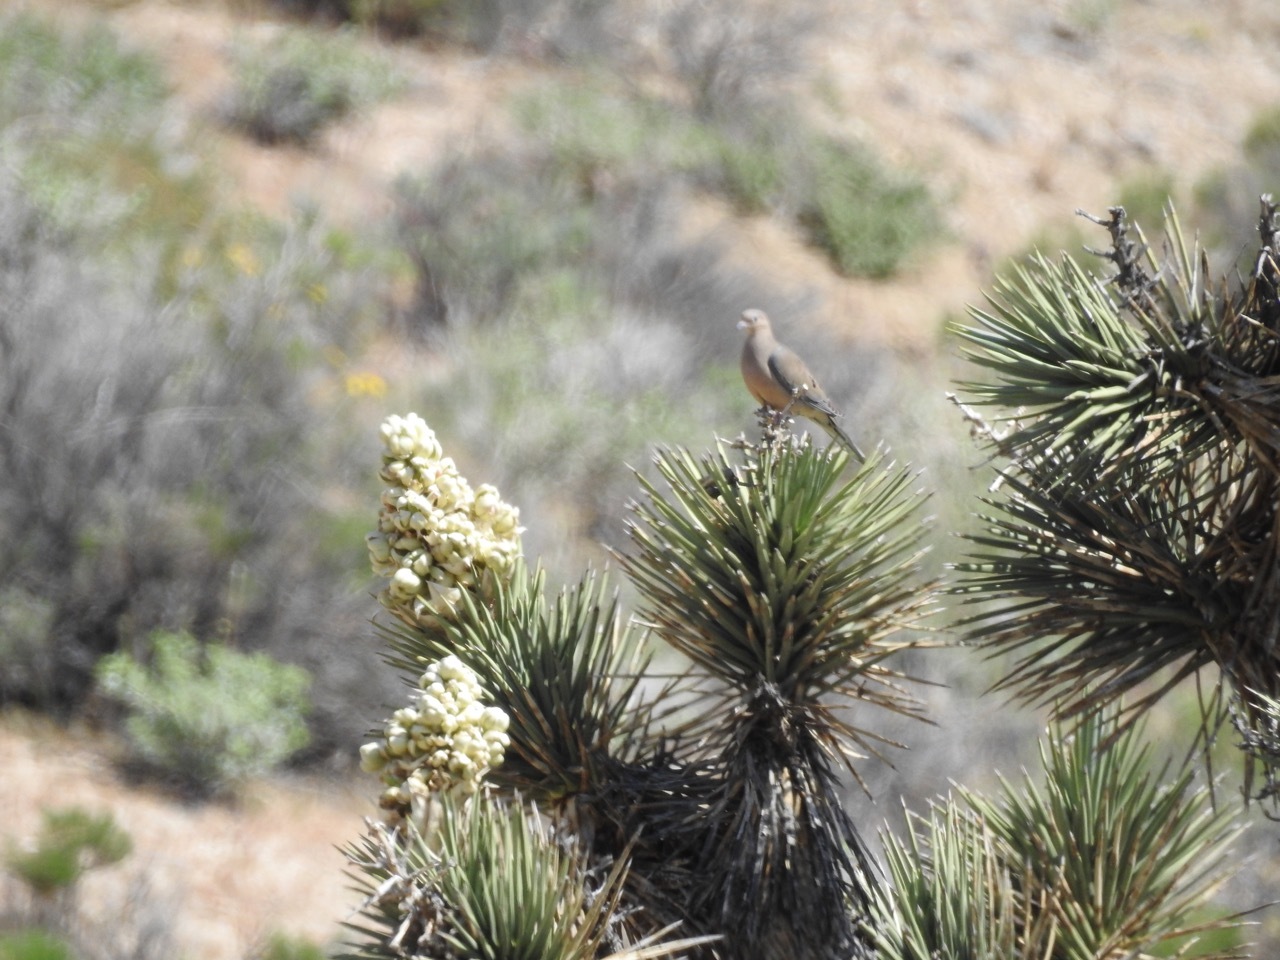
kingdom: Animalia
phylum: Chordata
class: Aves
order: Columbiformes
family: Columbidae
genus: Zenaida
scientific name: Zenaida macroura
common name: Mourning dove
